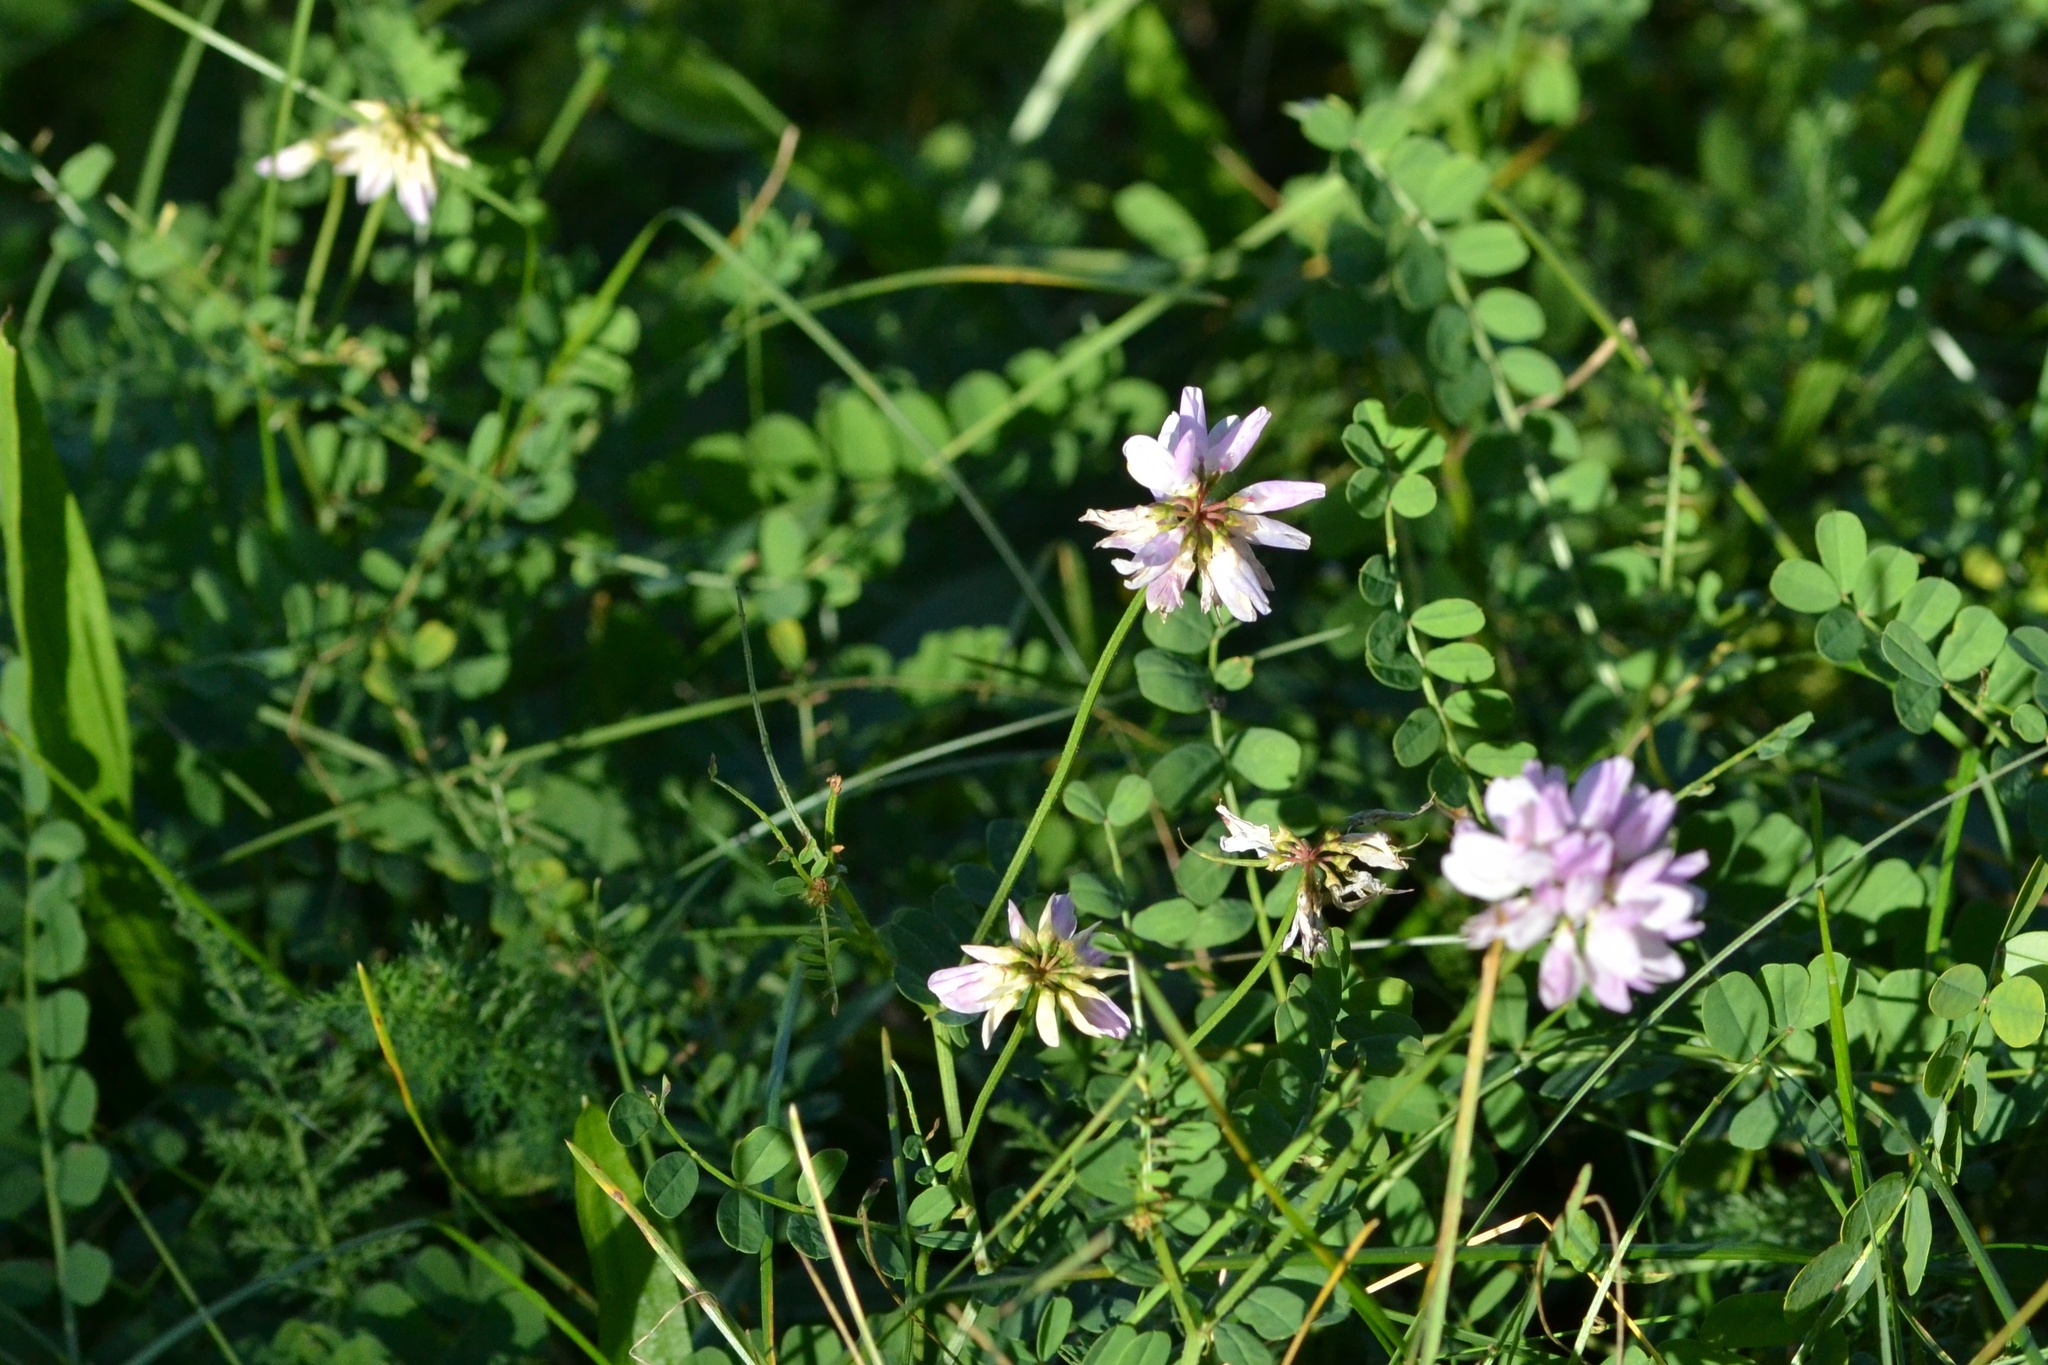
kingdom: Plantae
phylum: Tracheophyta
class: Magnoliopsida
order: Fabales
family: Fabaceae
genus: Coronilla
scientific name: Coronilla varia
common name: Crownvetch
